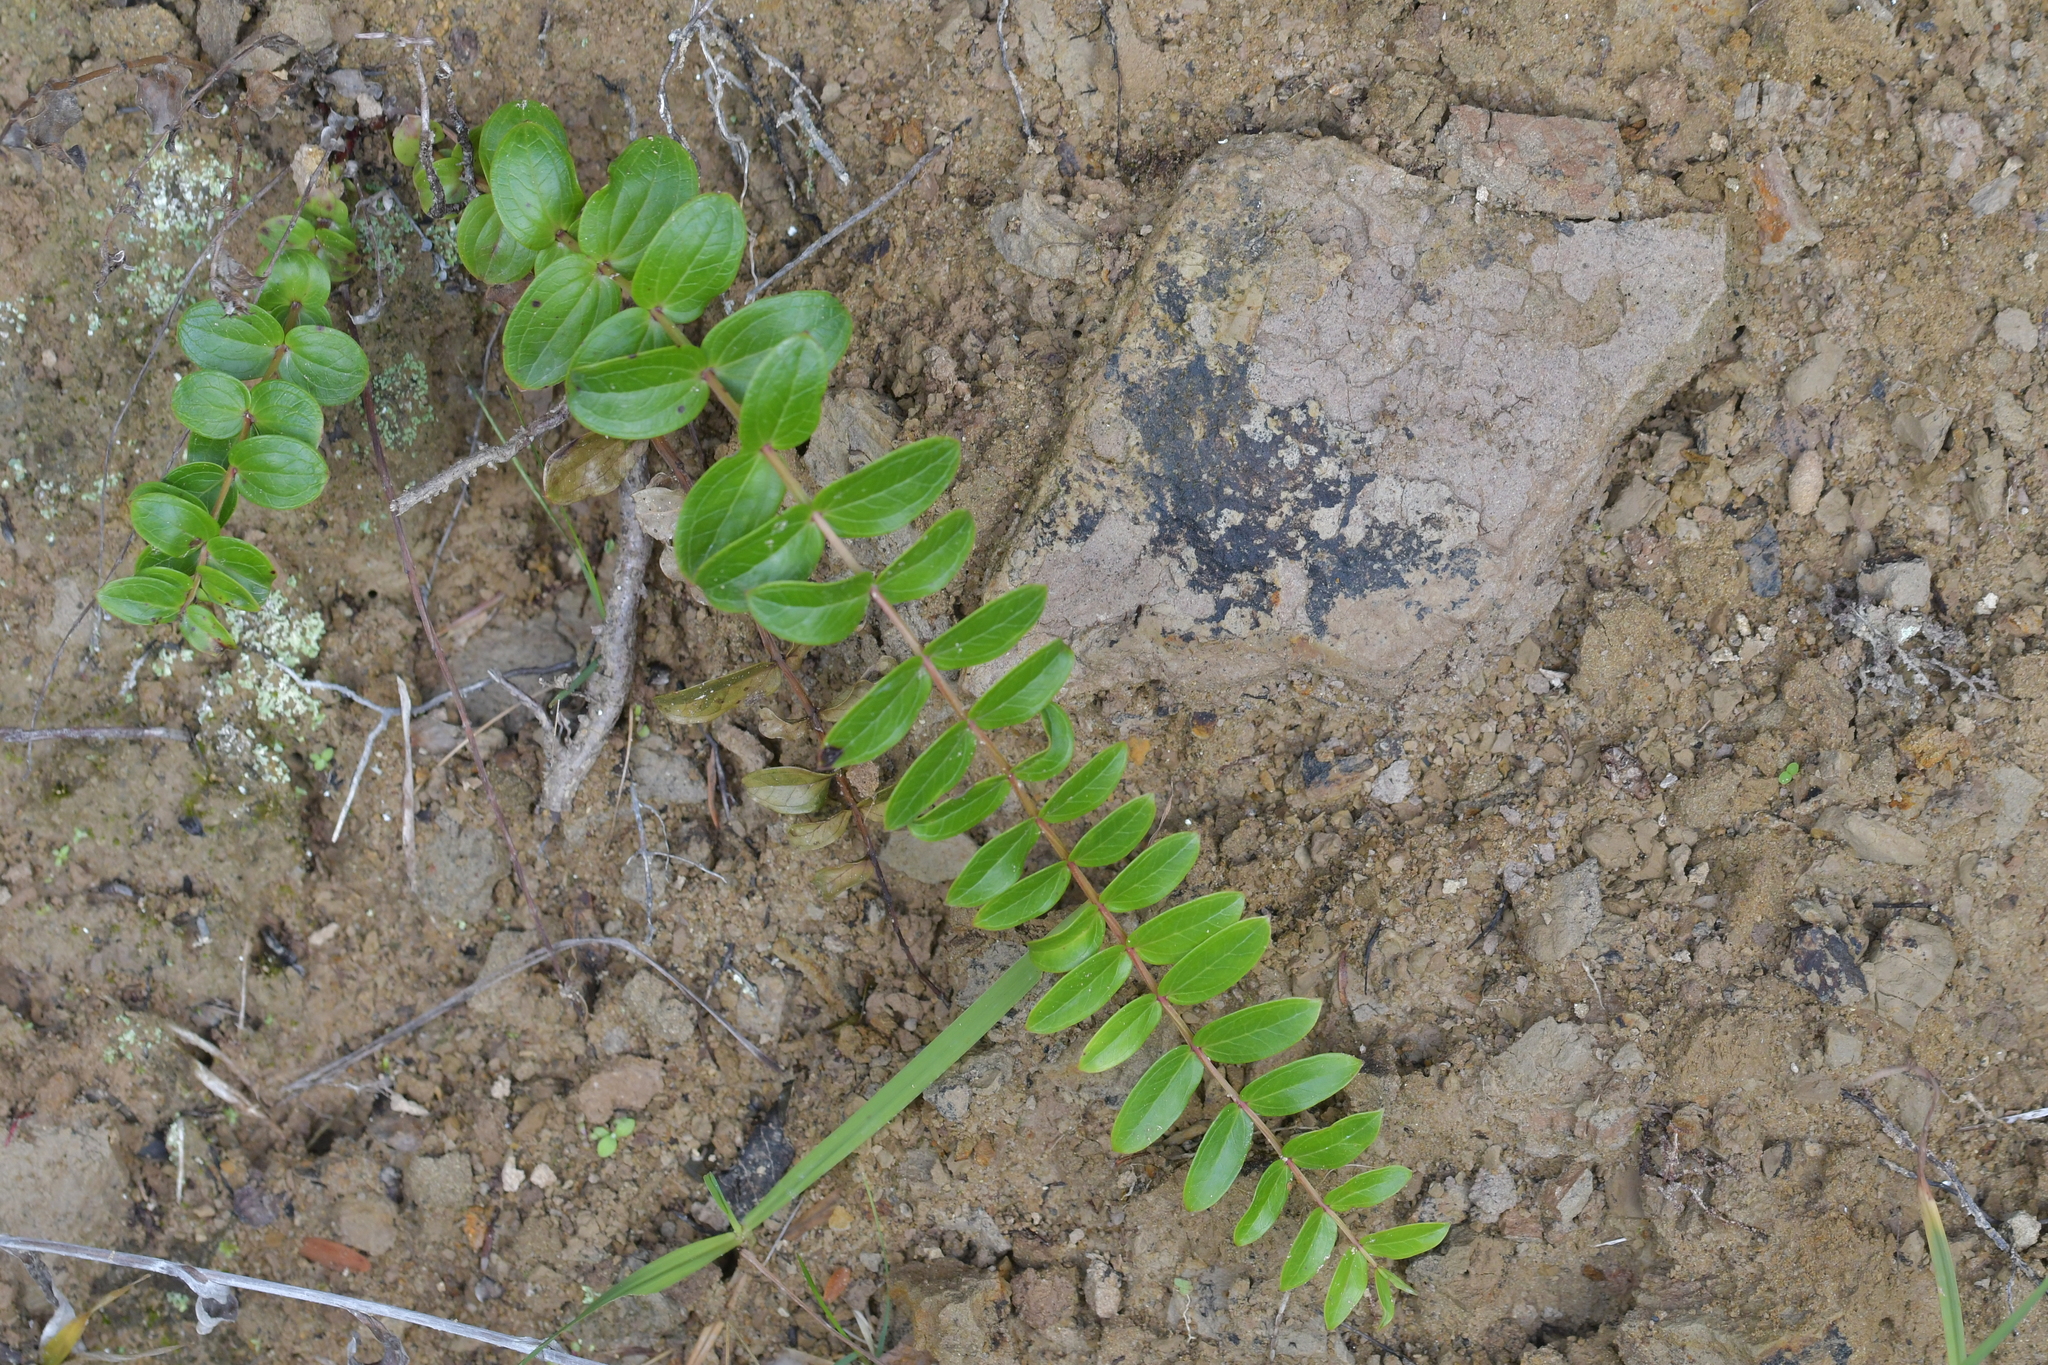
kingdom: Plantae
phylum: Tracheophyta
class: Magnoliopsida
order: Cucurbitales
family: Coriariaceae
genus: Coriaria
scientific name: Coriaria arborea
